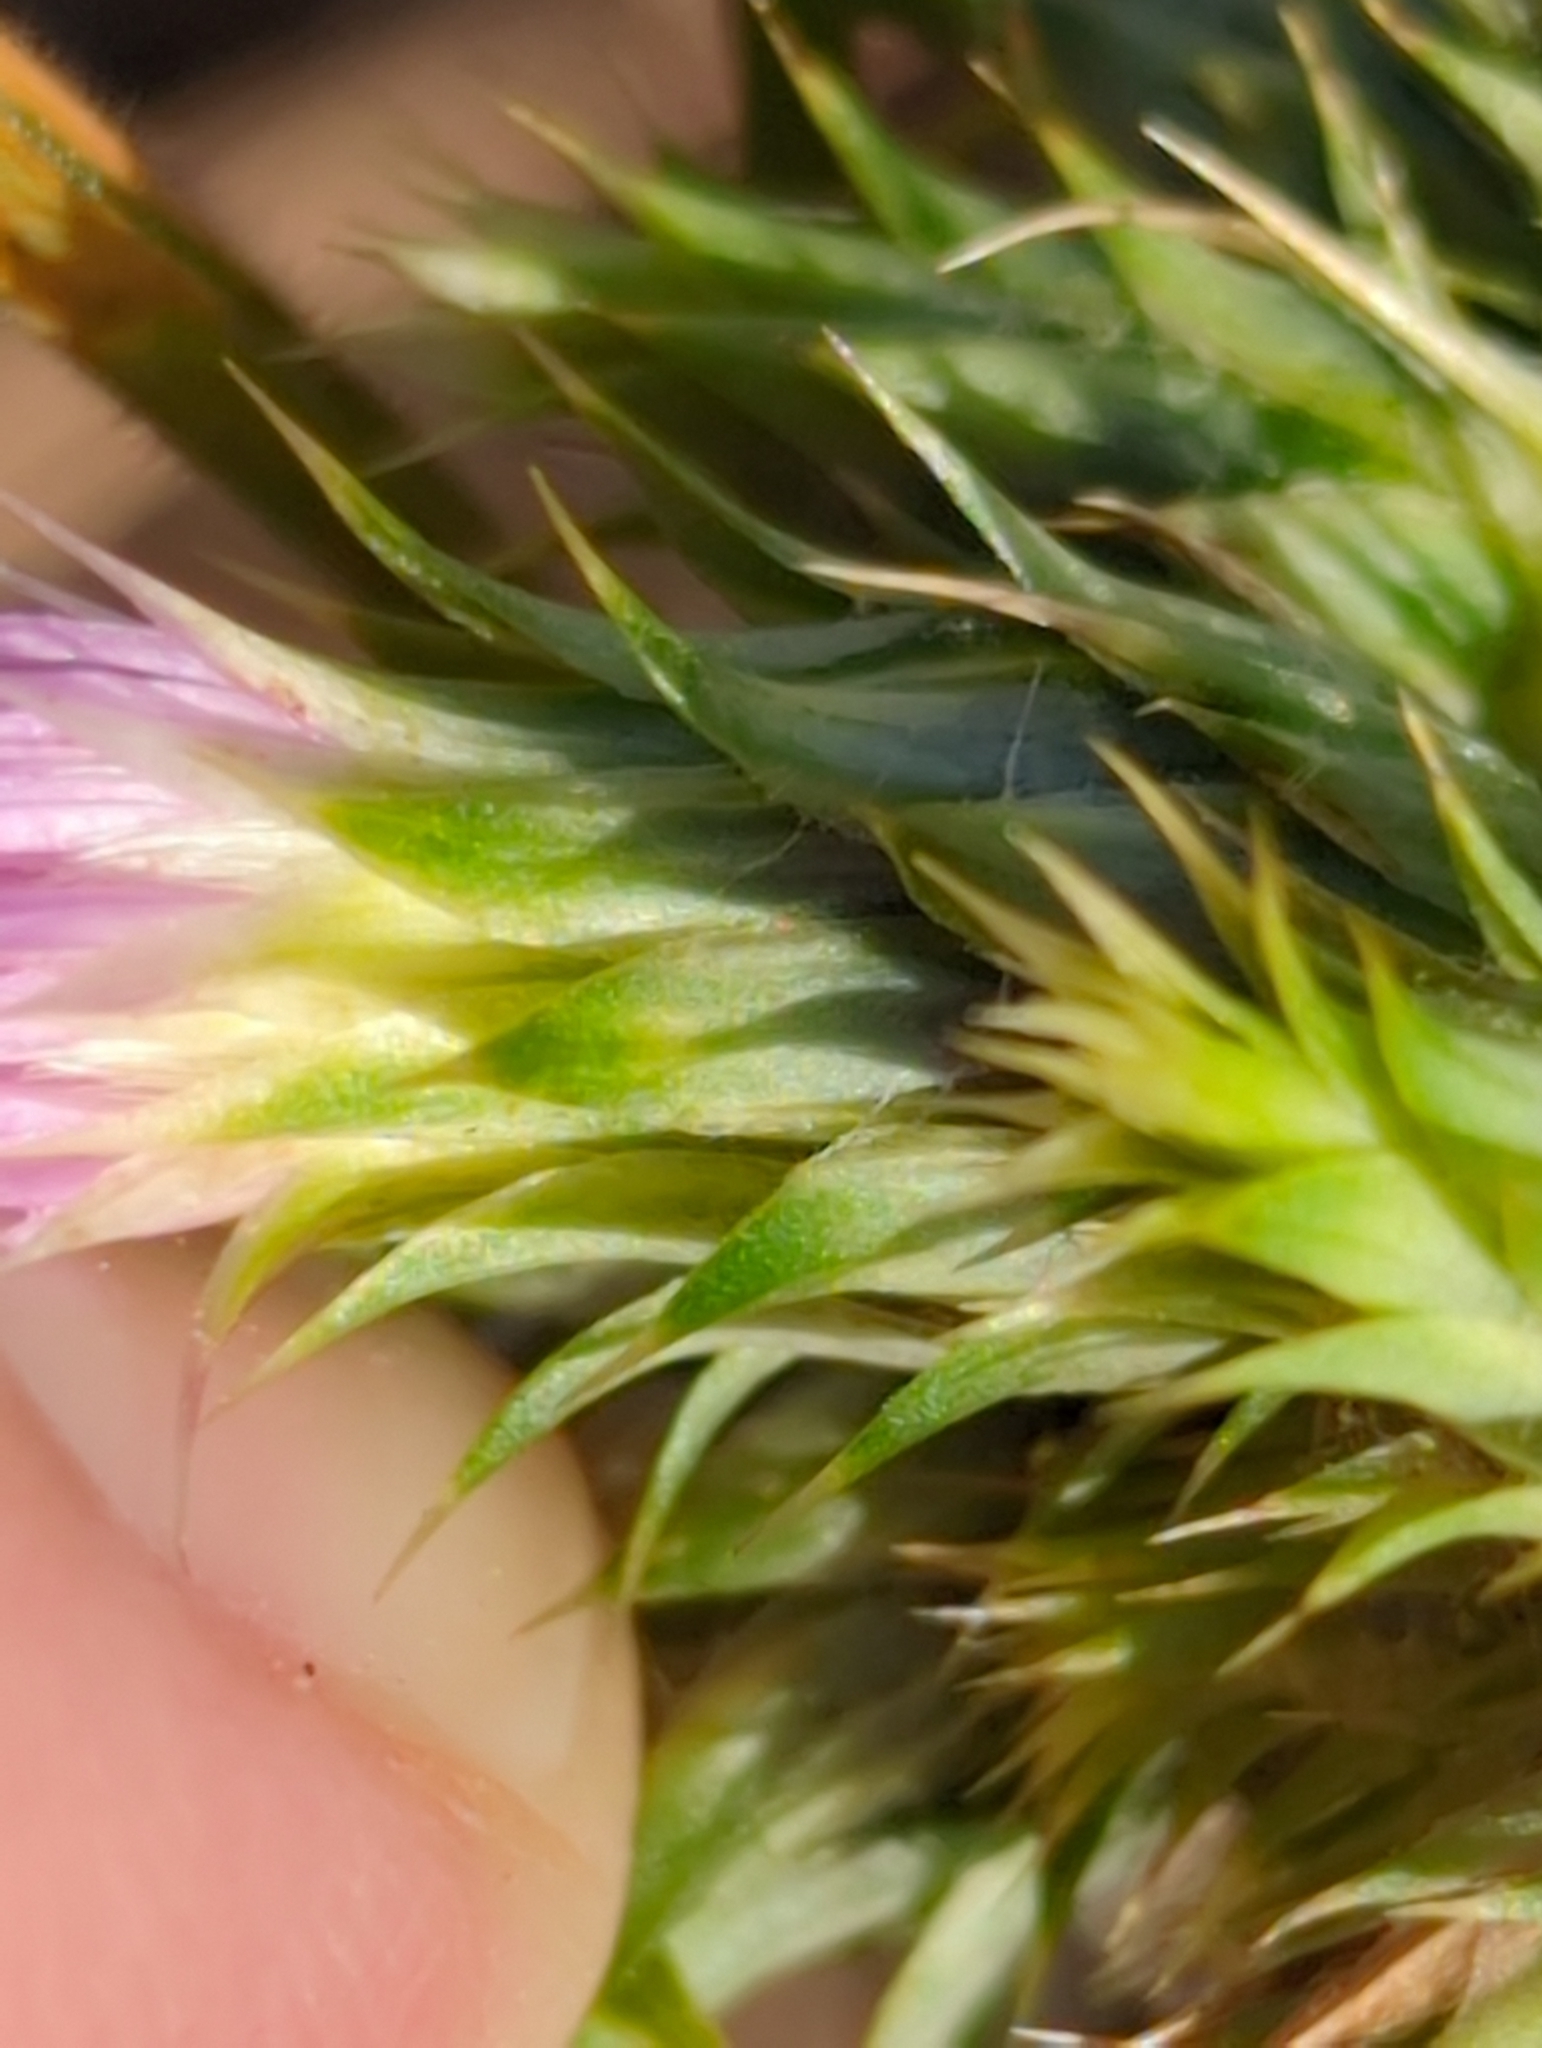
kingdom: Plantae
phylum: Tracheophyta
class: Magnoliopsida
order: Asterales
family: Asteraceae
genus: Carduus
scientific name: Carduus tenuiflorus
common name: Slender thistle
